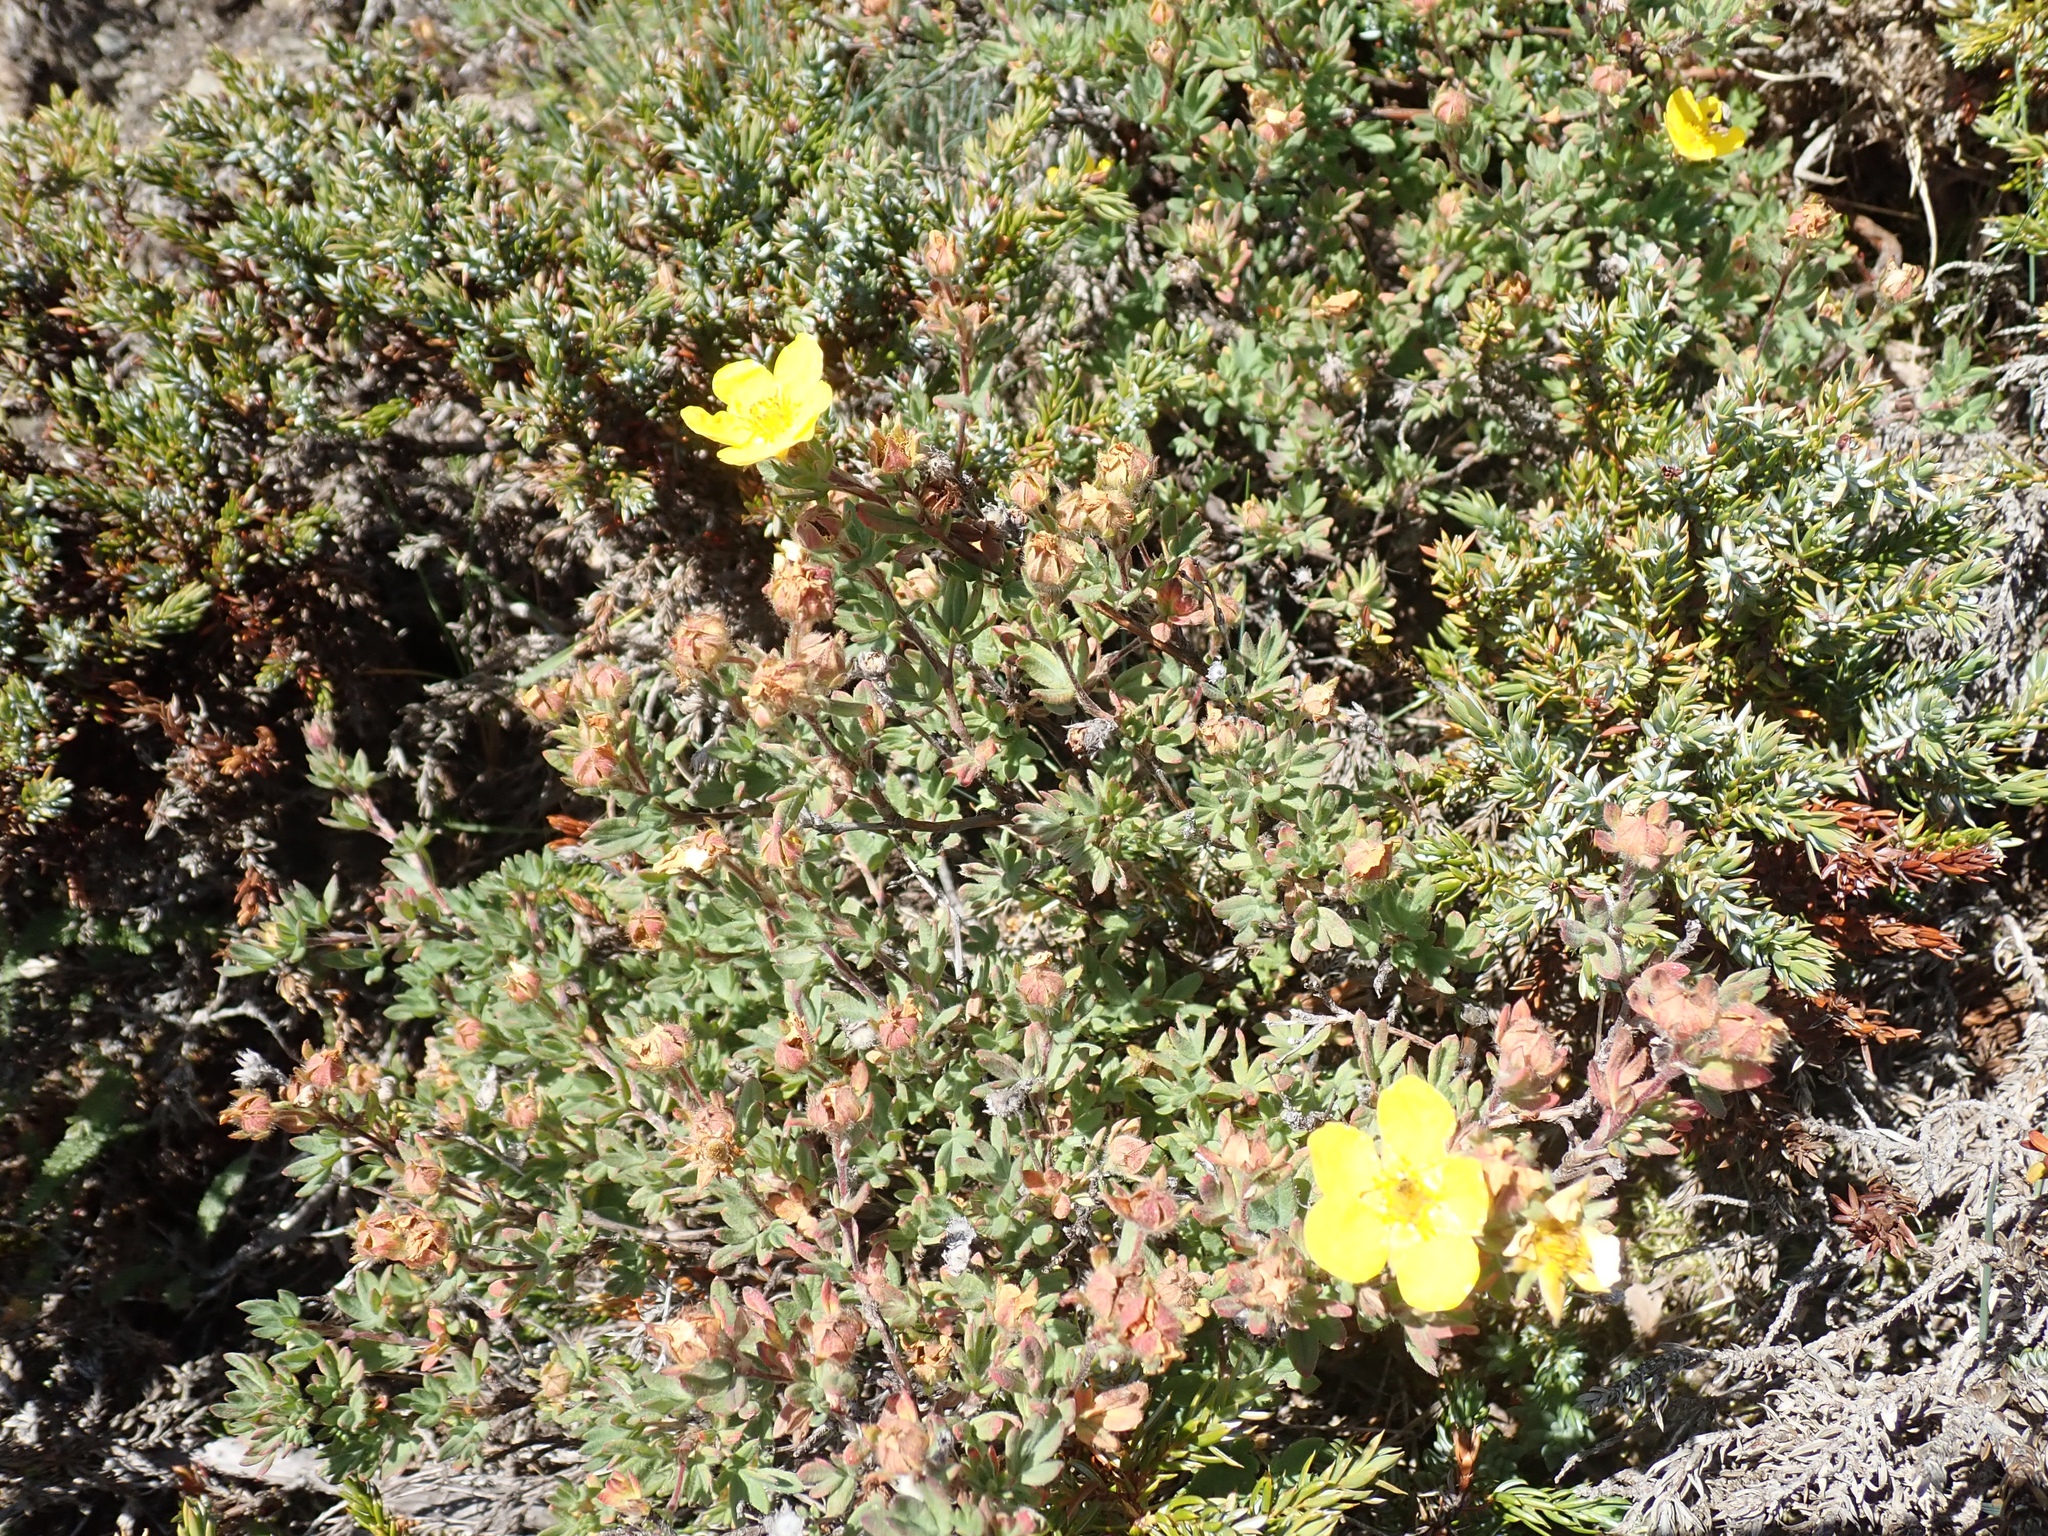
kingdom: Plantae
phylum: Tracheophyta
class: Magnoliopsida
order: Rosales
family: Rosaceae
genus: Dasiphora
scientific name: Dasiphora fruticosa
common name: Shrubby cinquefoil
